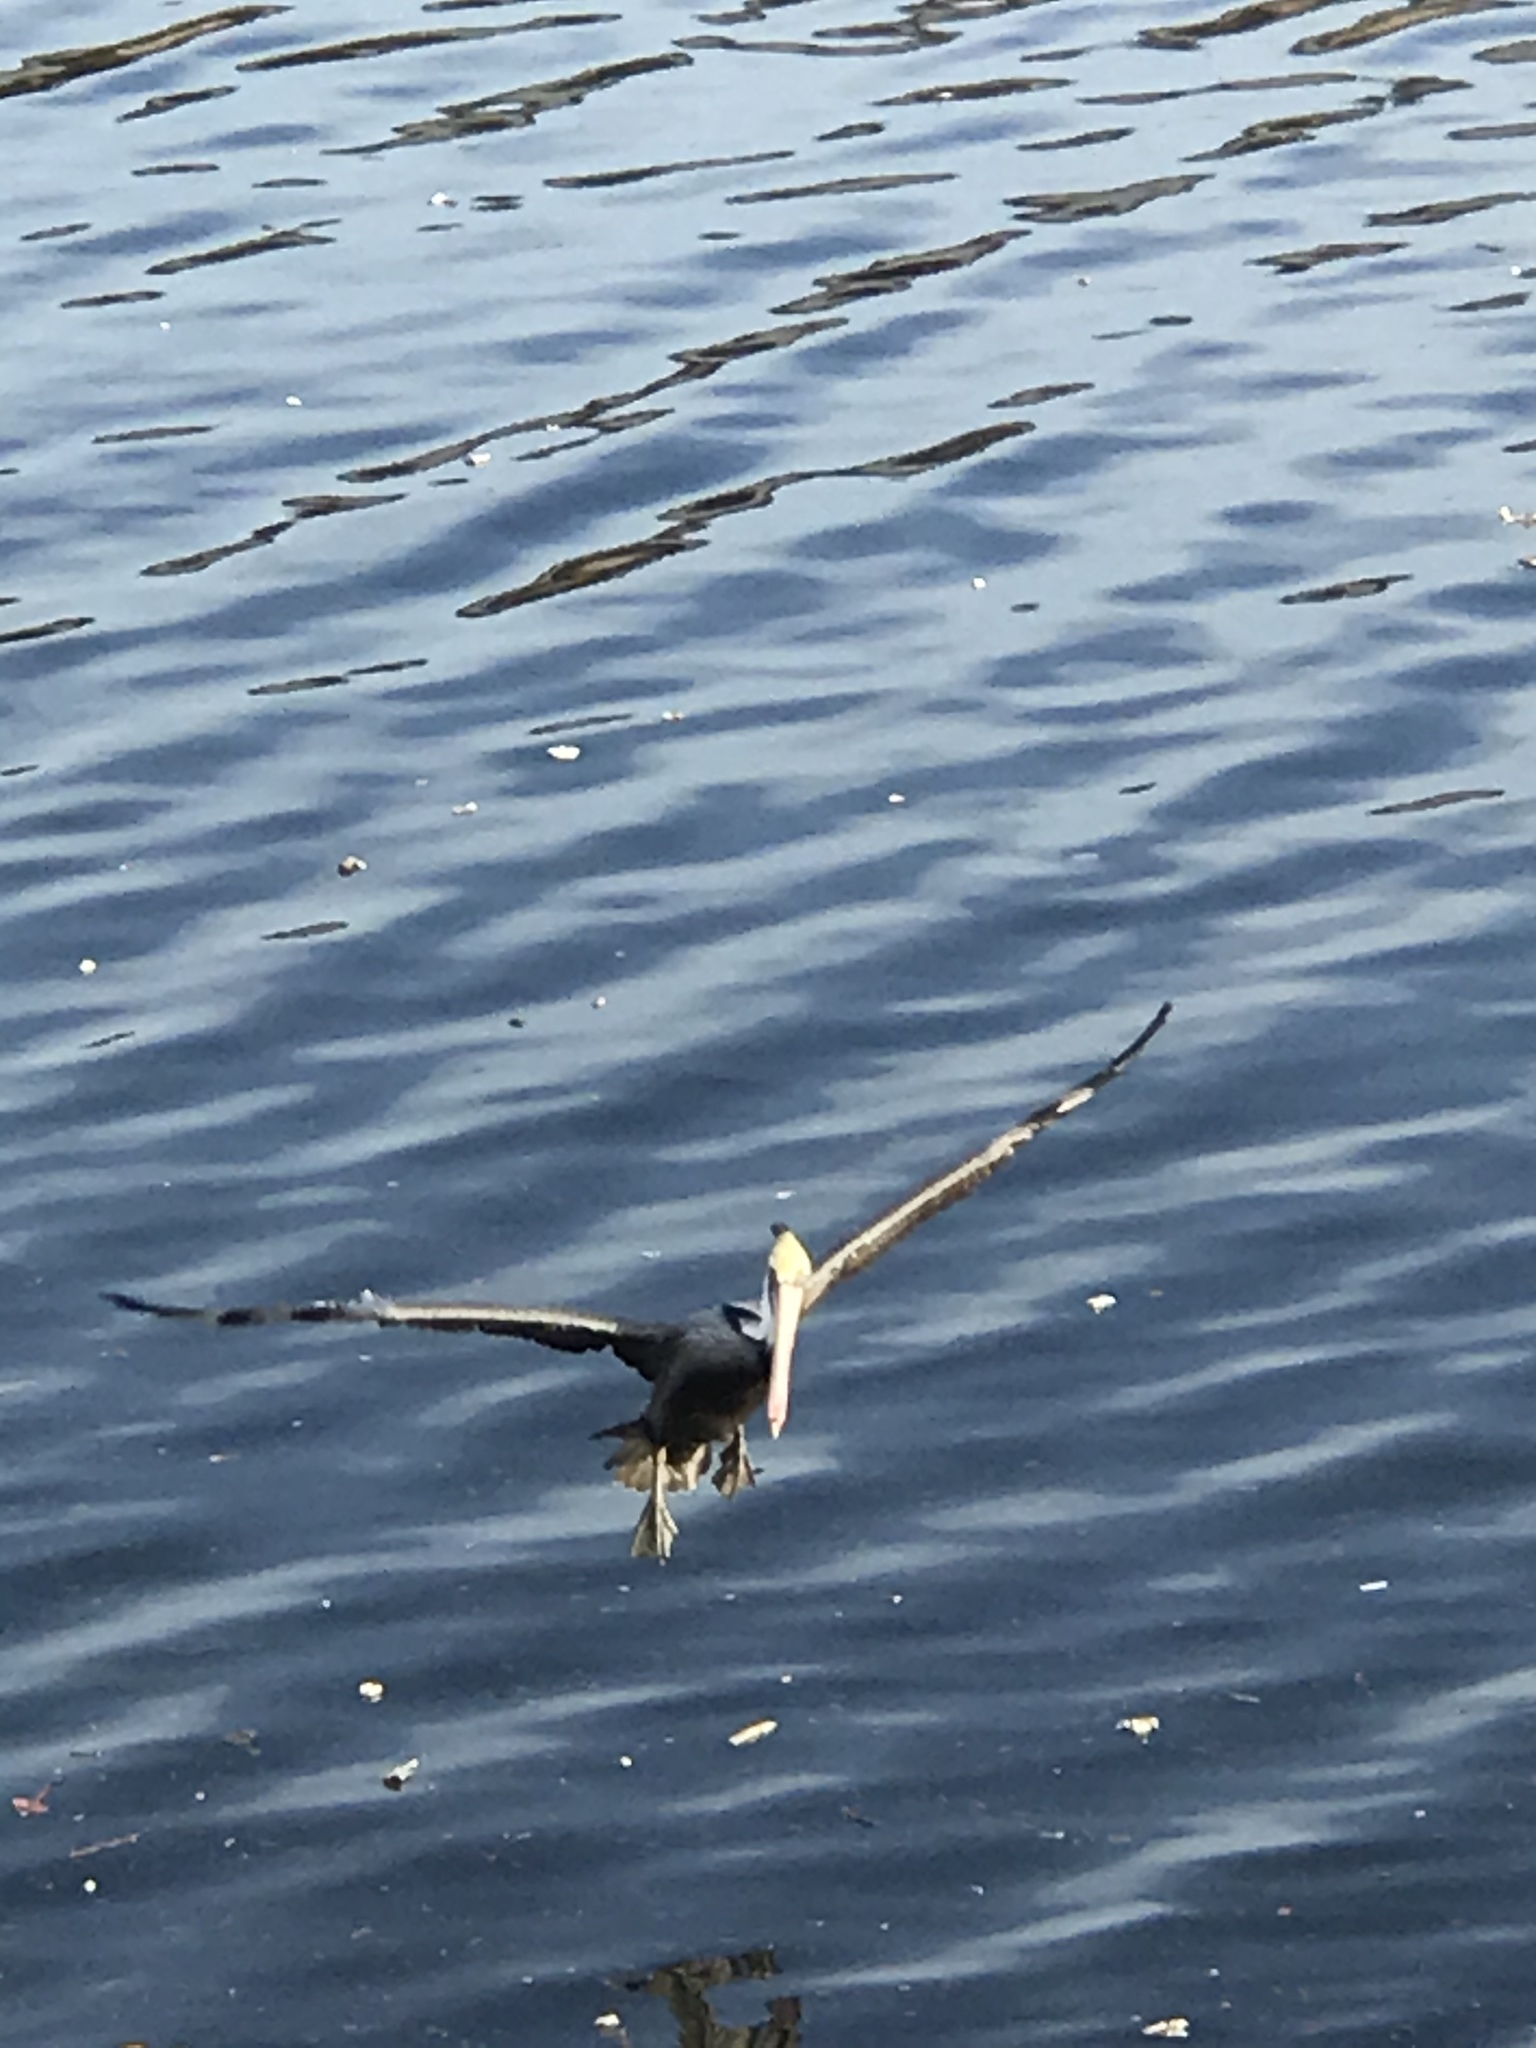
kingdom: Animalia
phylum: Chordata
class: Aves
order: Pelecaniformes
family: Pelecanidae
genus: Pelecanus
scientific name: Pelecanus occidentalis
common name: Brown pelican
